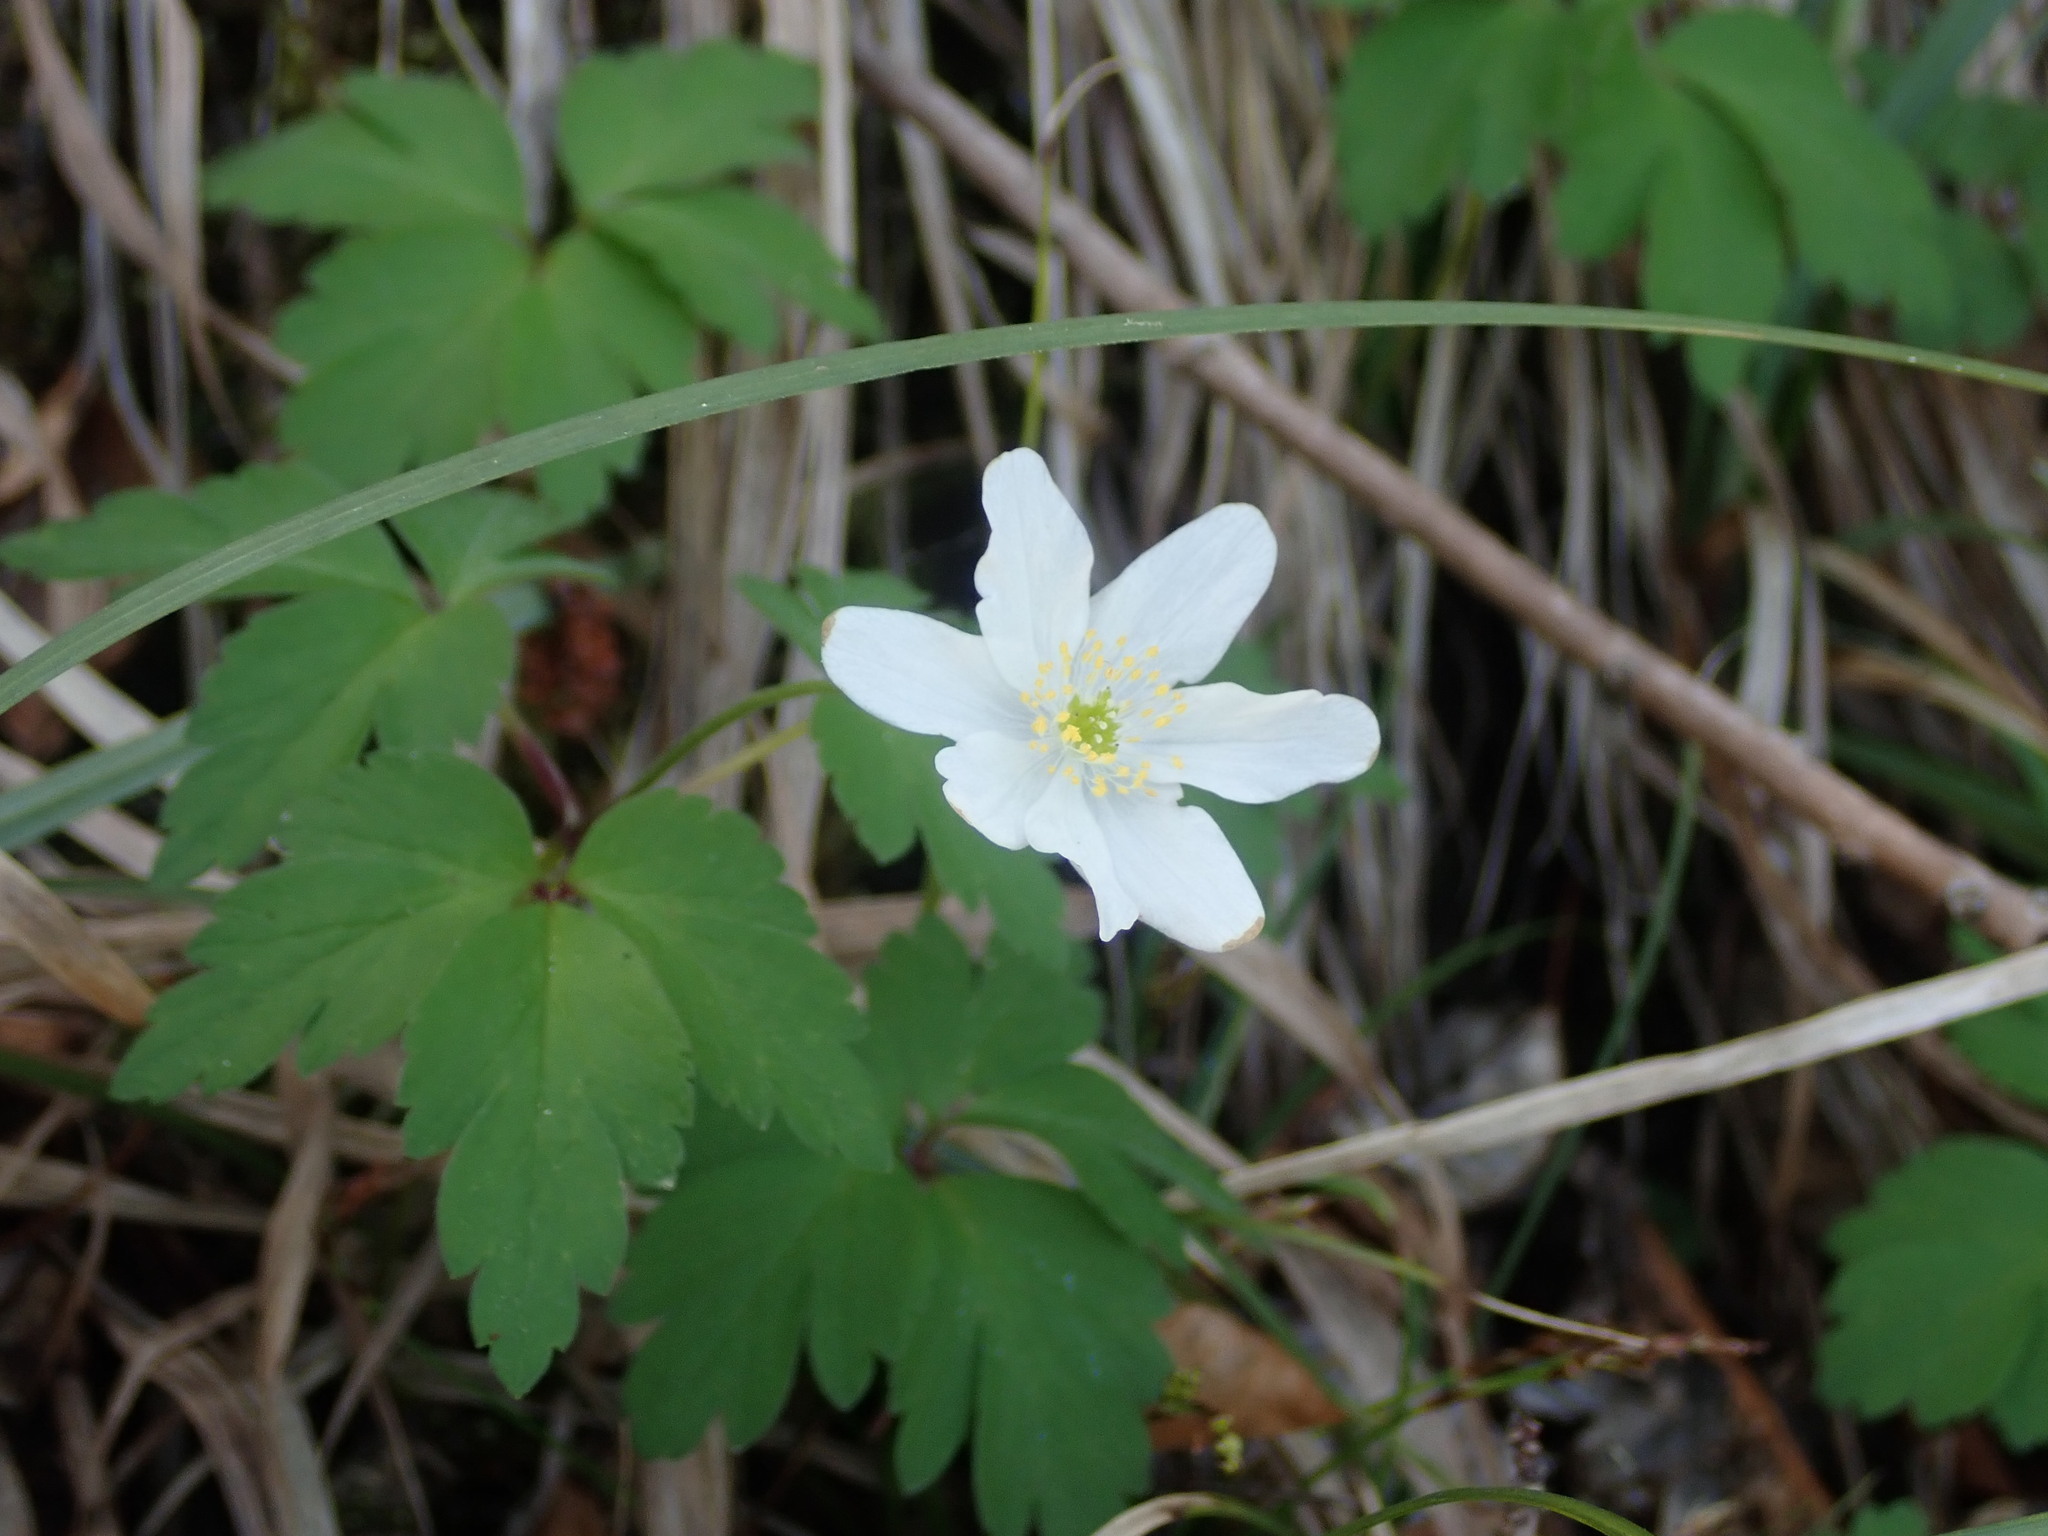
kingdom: Plantae
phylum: Tracheophyta
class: Magnoliopsida
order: Ranunculales
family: Ranunculaceae
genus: Anemone
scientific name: Anemone nemorosa
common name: Wood anemone
